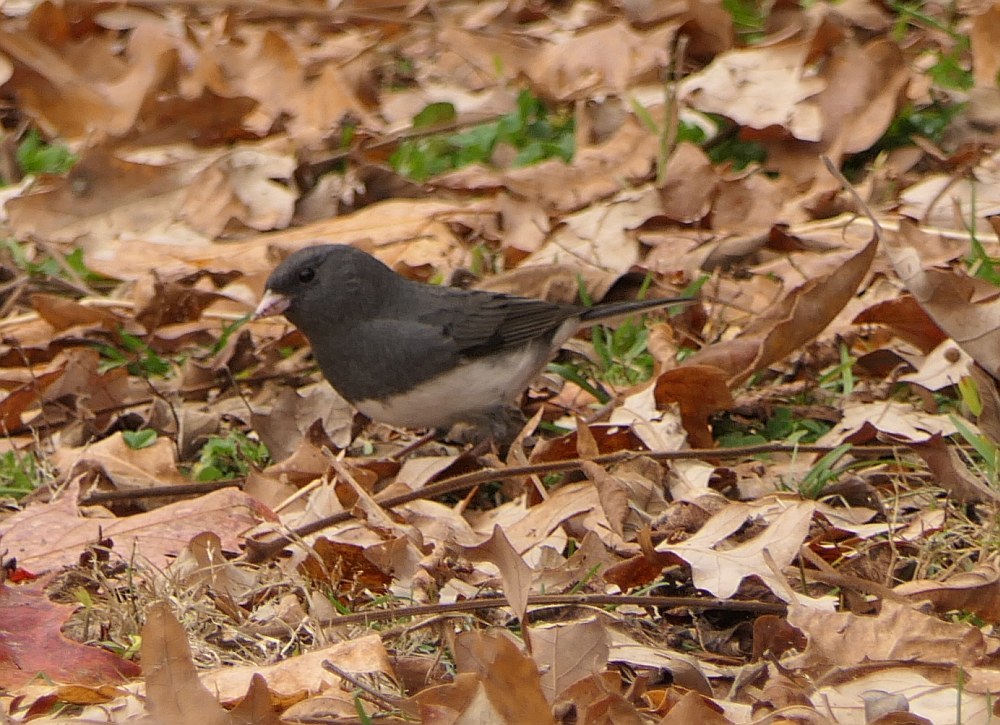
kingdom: Animalia
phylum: Chordata
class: Aves
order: Passeriformes
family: Passerellidae
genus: Junco
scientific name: Junco hyemalis
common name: Dark-eyed junco
